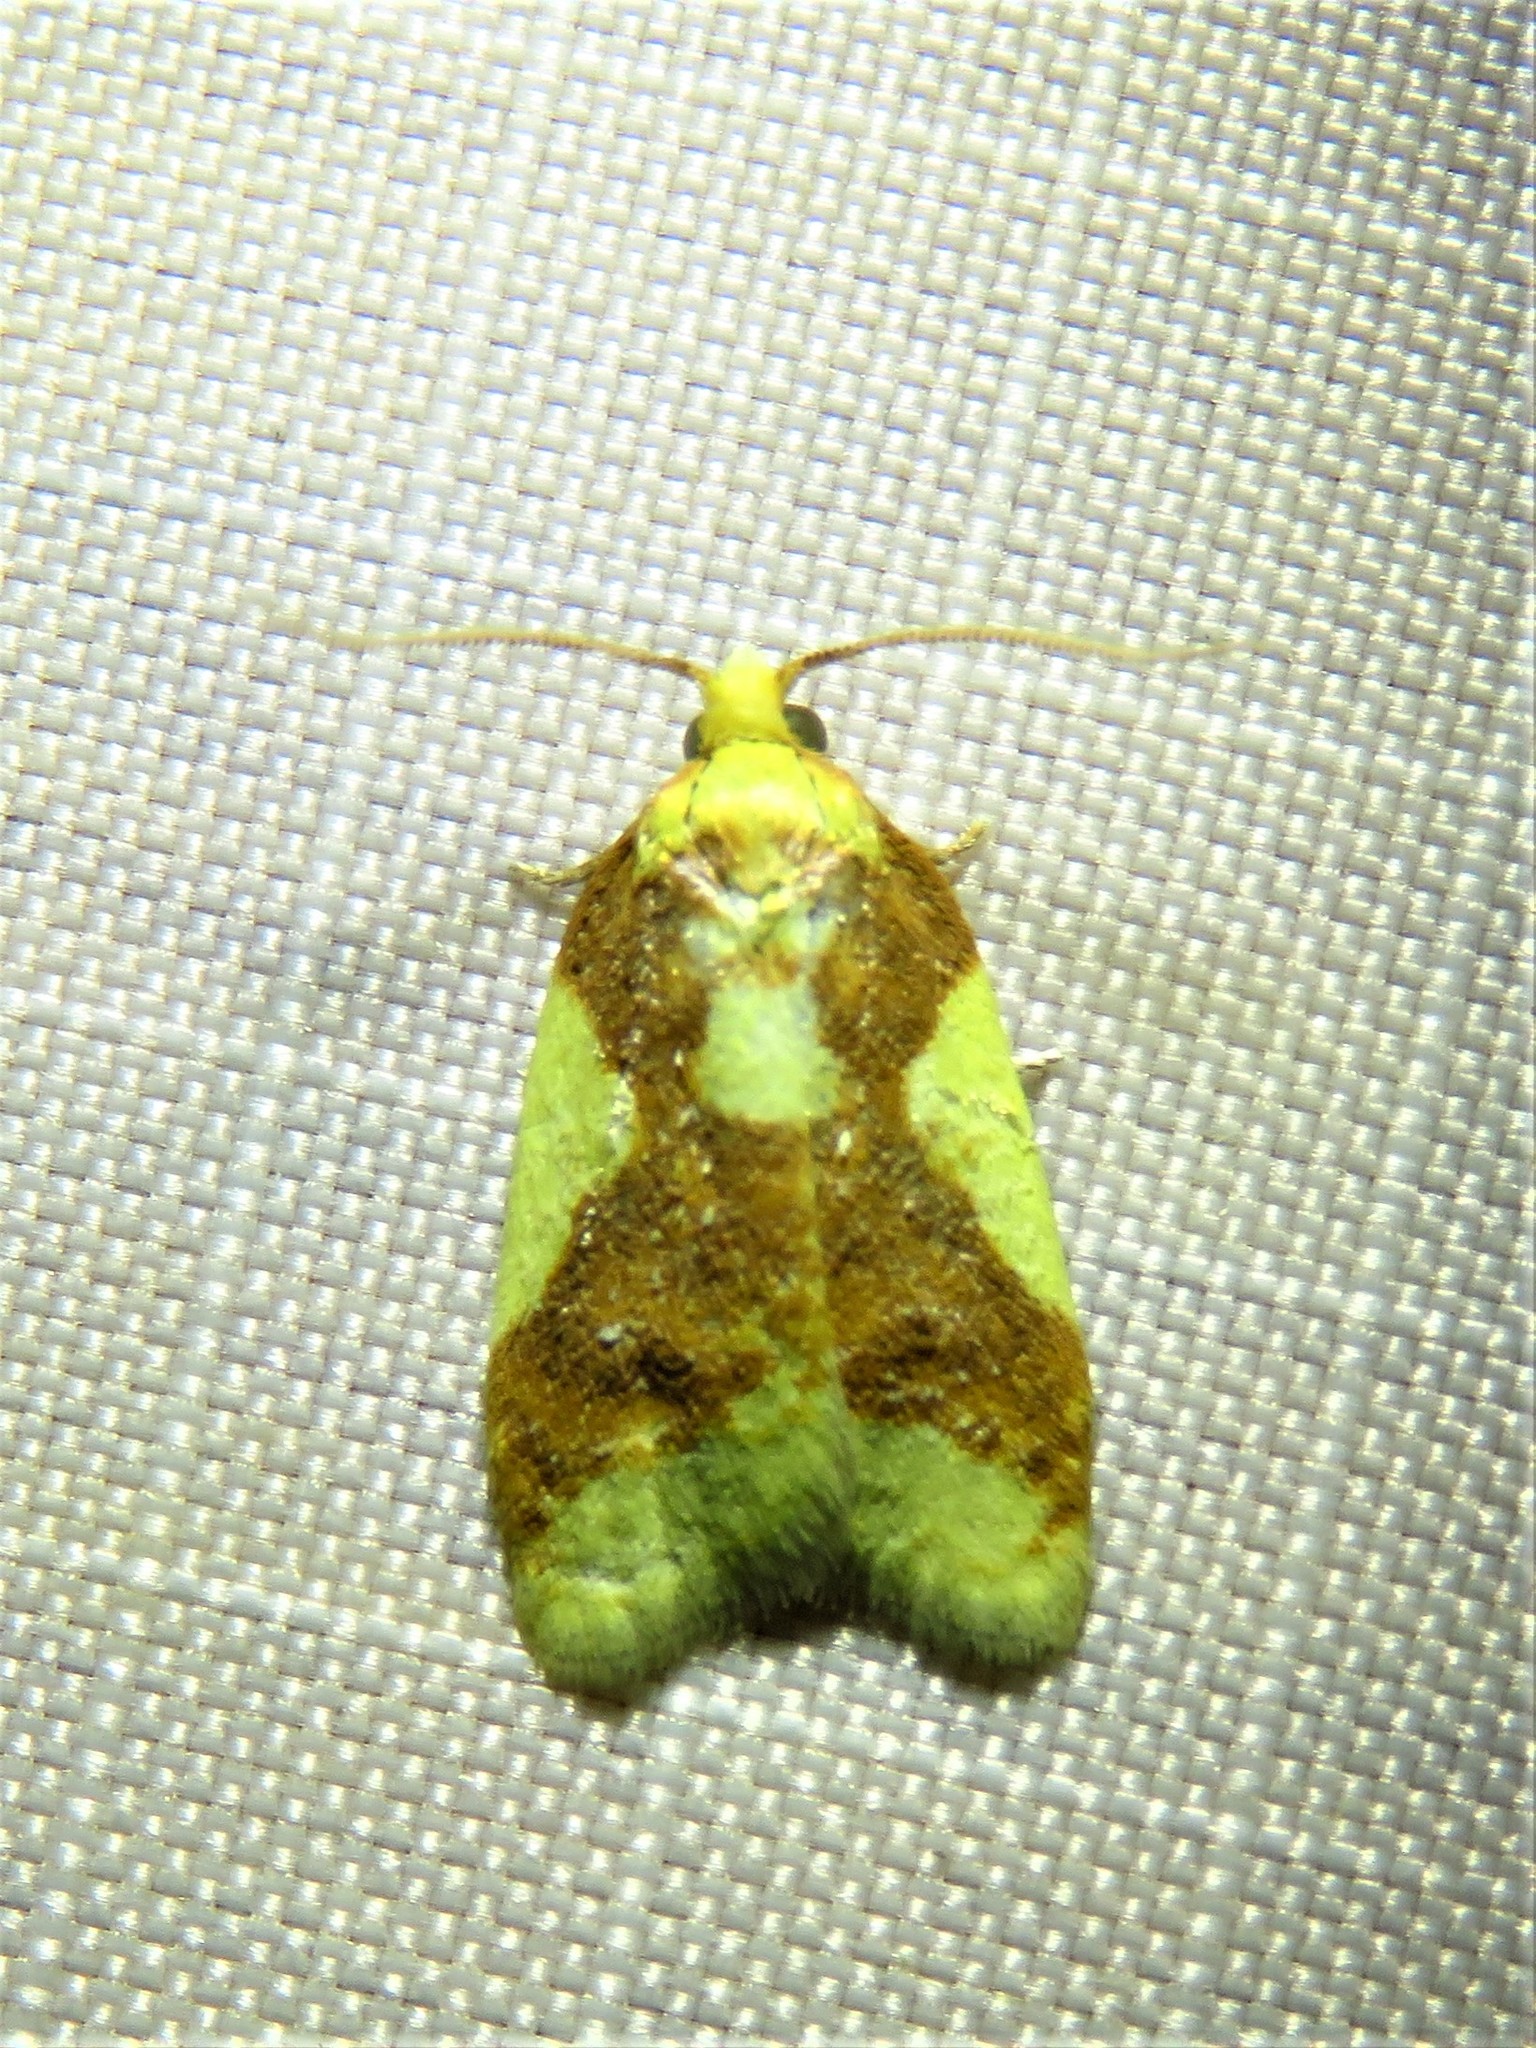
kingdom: Animalia
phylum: Arthropoda
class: Insecta
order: Lepidoptera
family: Tortricidae
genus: Sparganothis
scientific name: Sparganothis pulcherrimana
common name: Beautiful sparganothis
